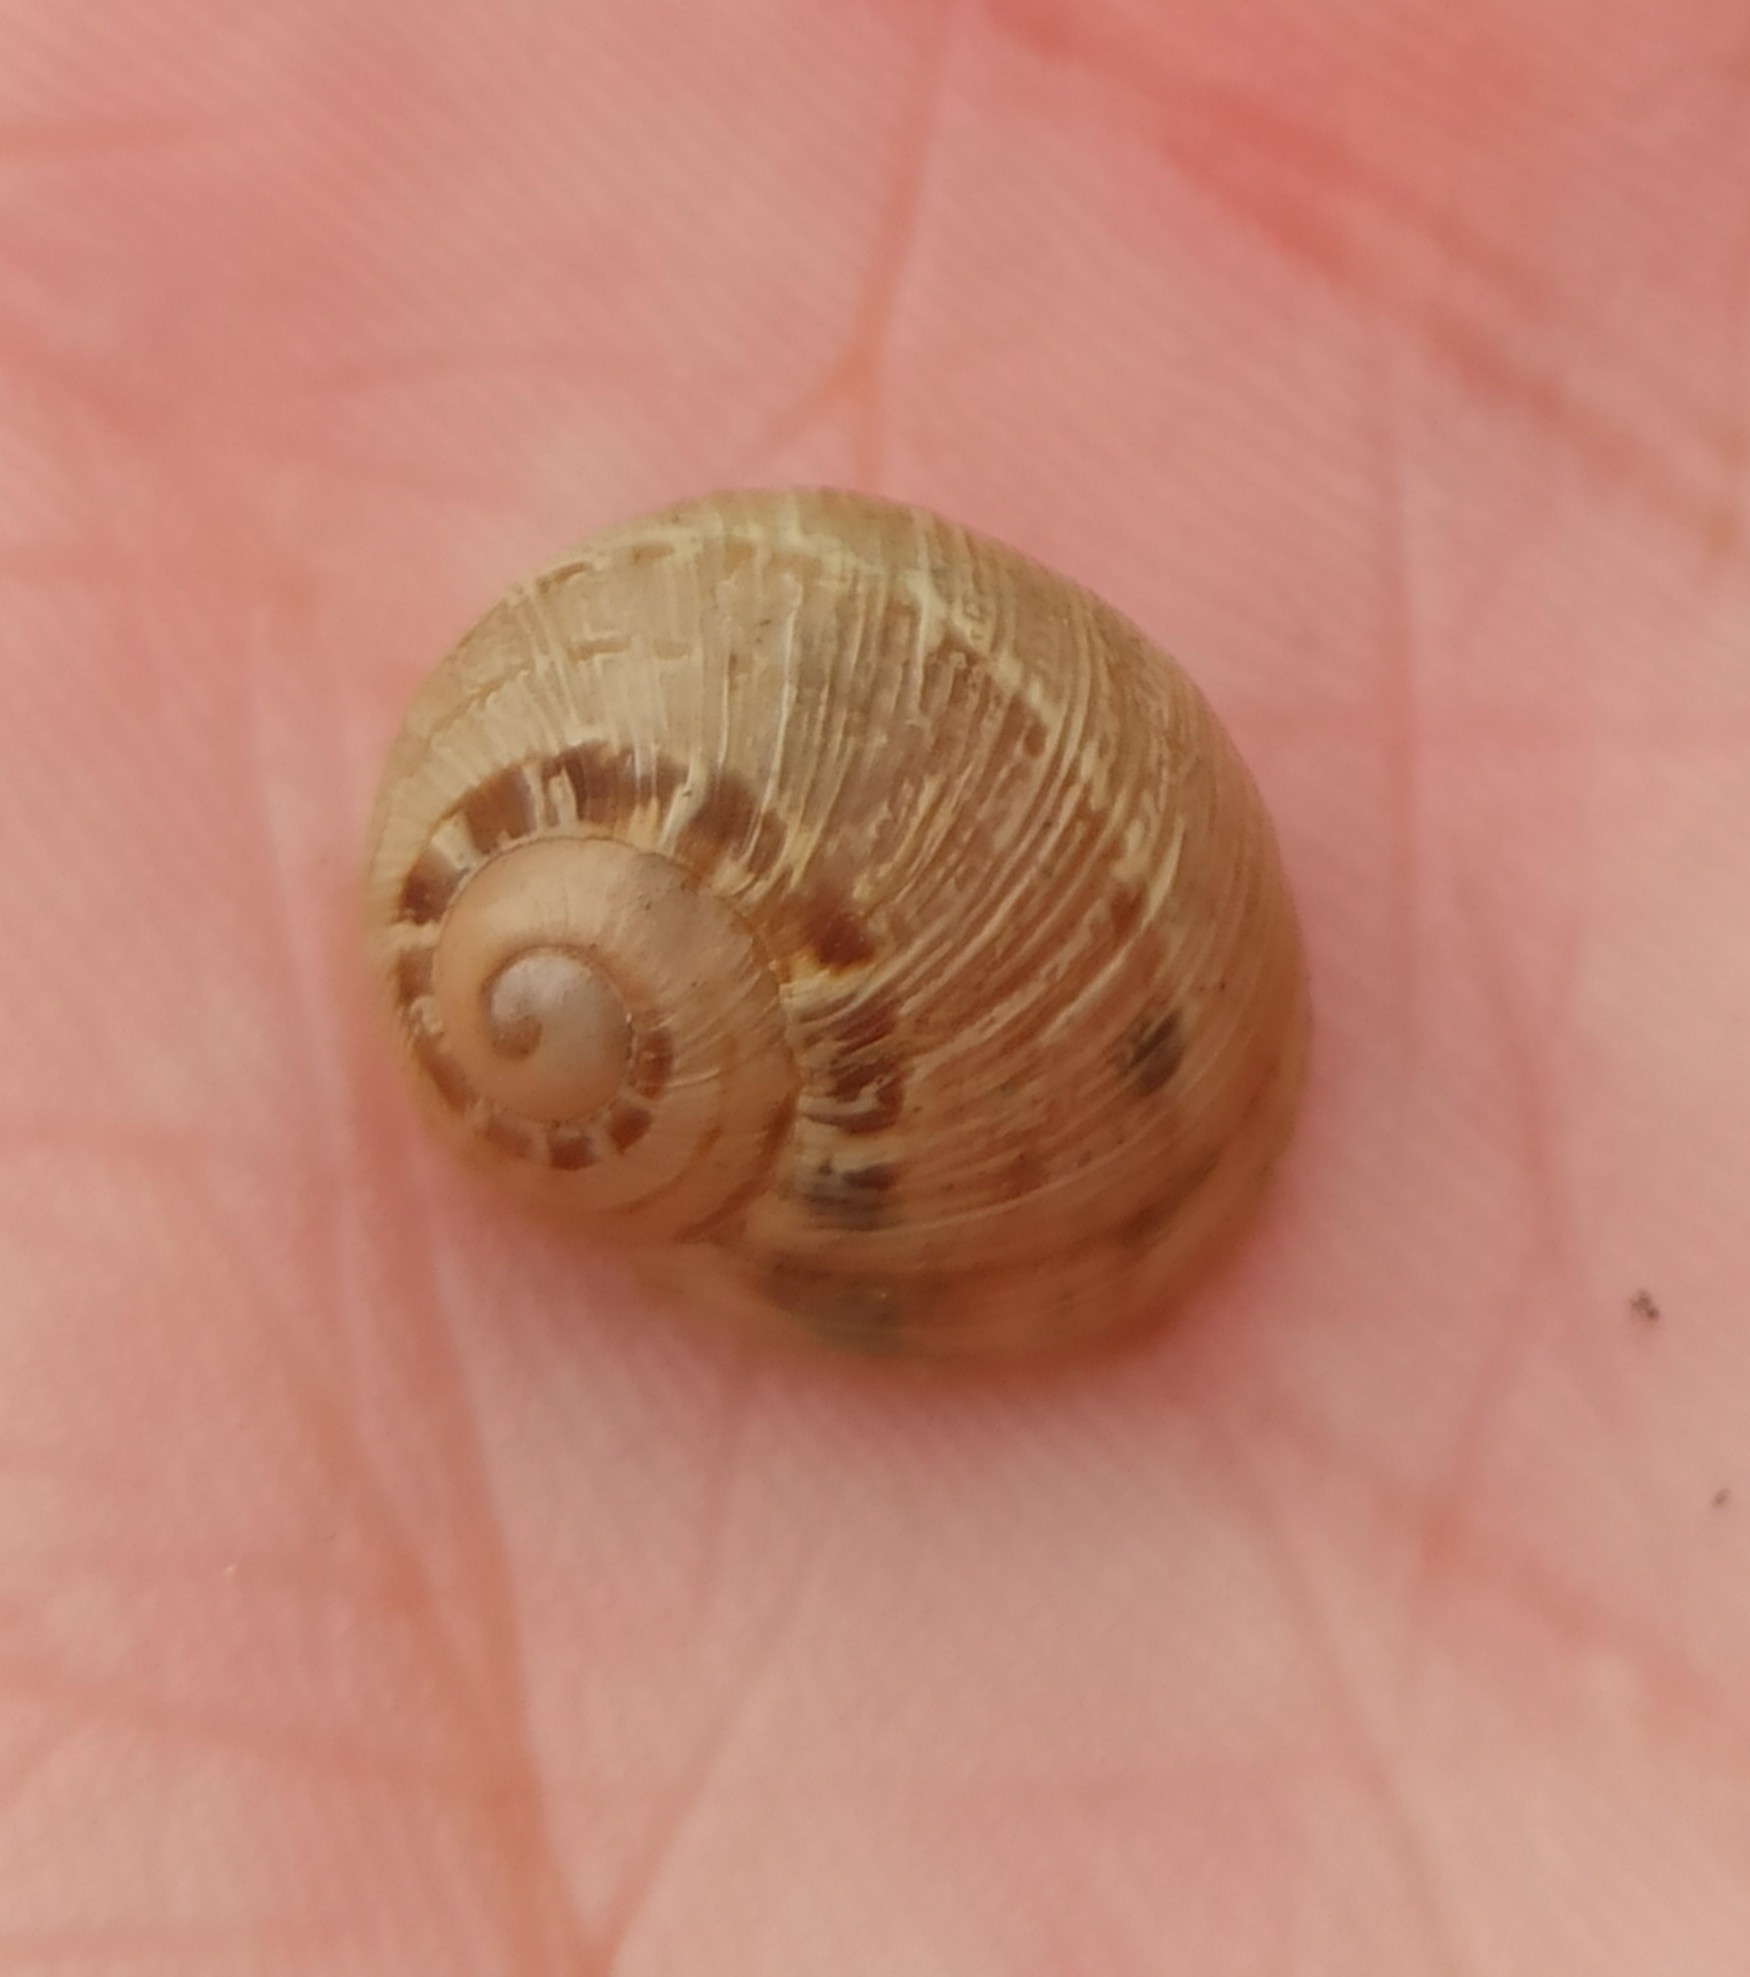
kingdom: Animalia
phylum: Mollusca
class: Gastropoda
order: Stylommatophora
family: Helicidae
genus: Cornu
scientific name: Cornu aspersum
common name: Brown garden snail
